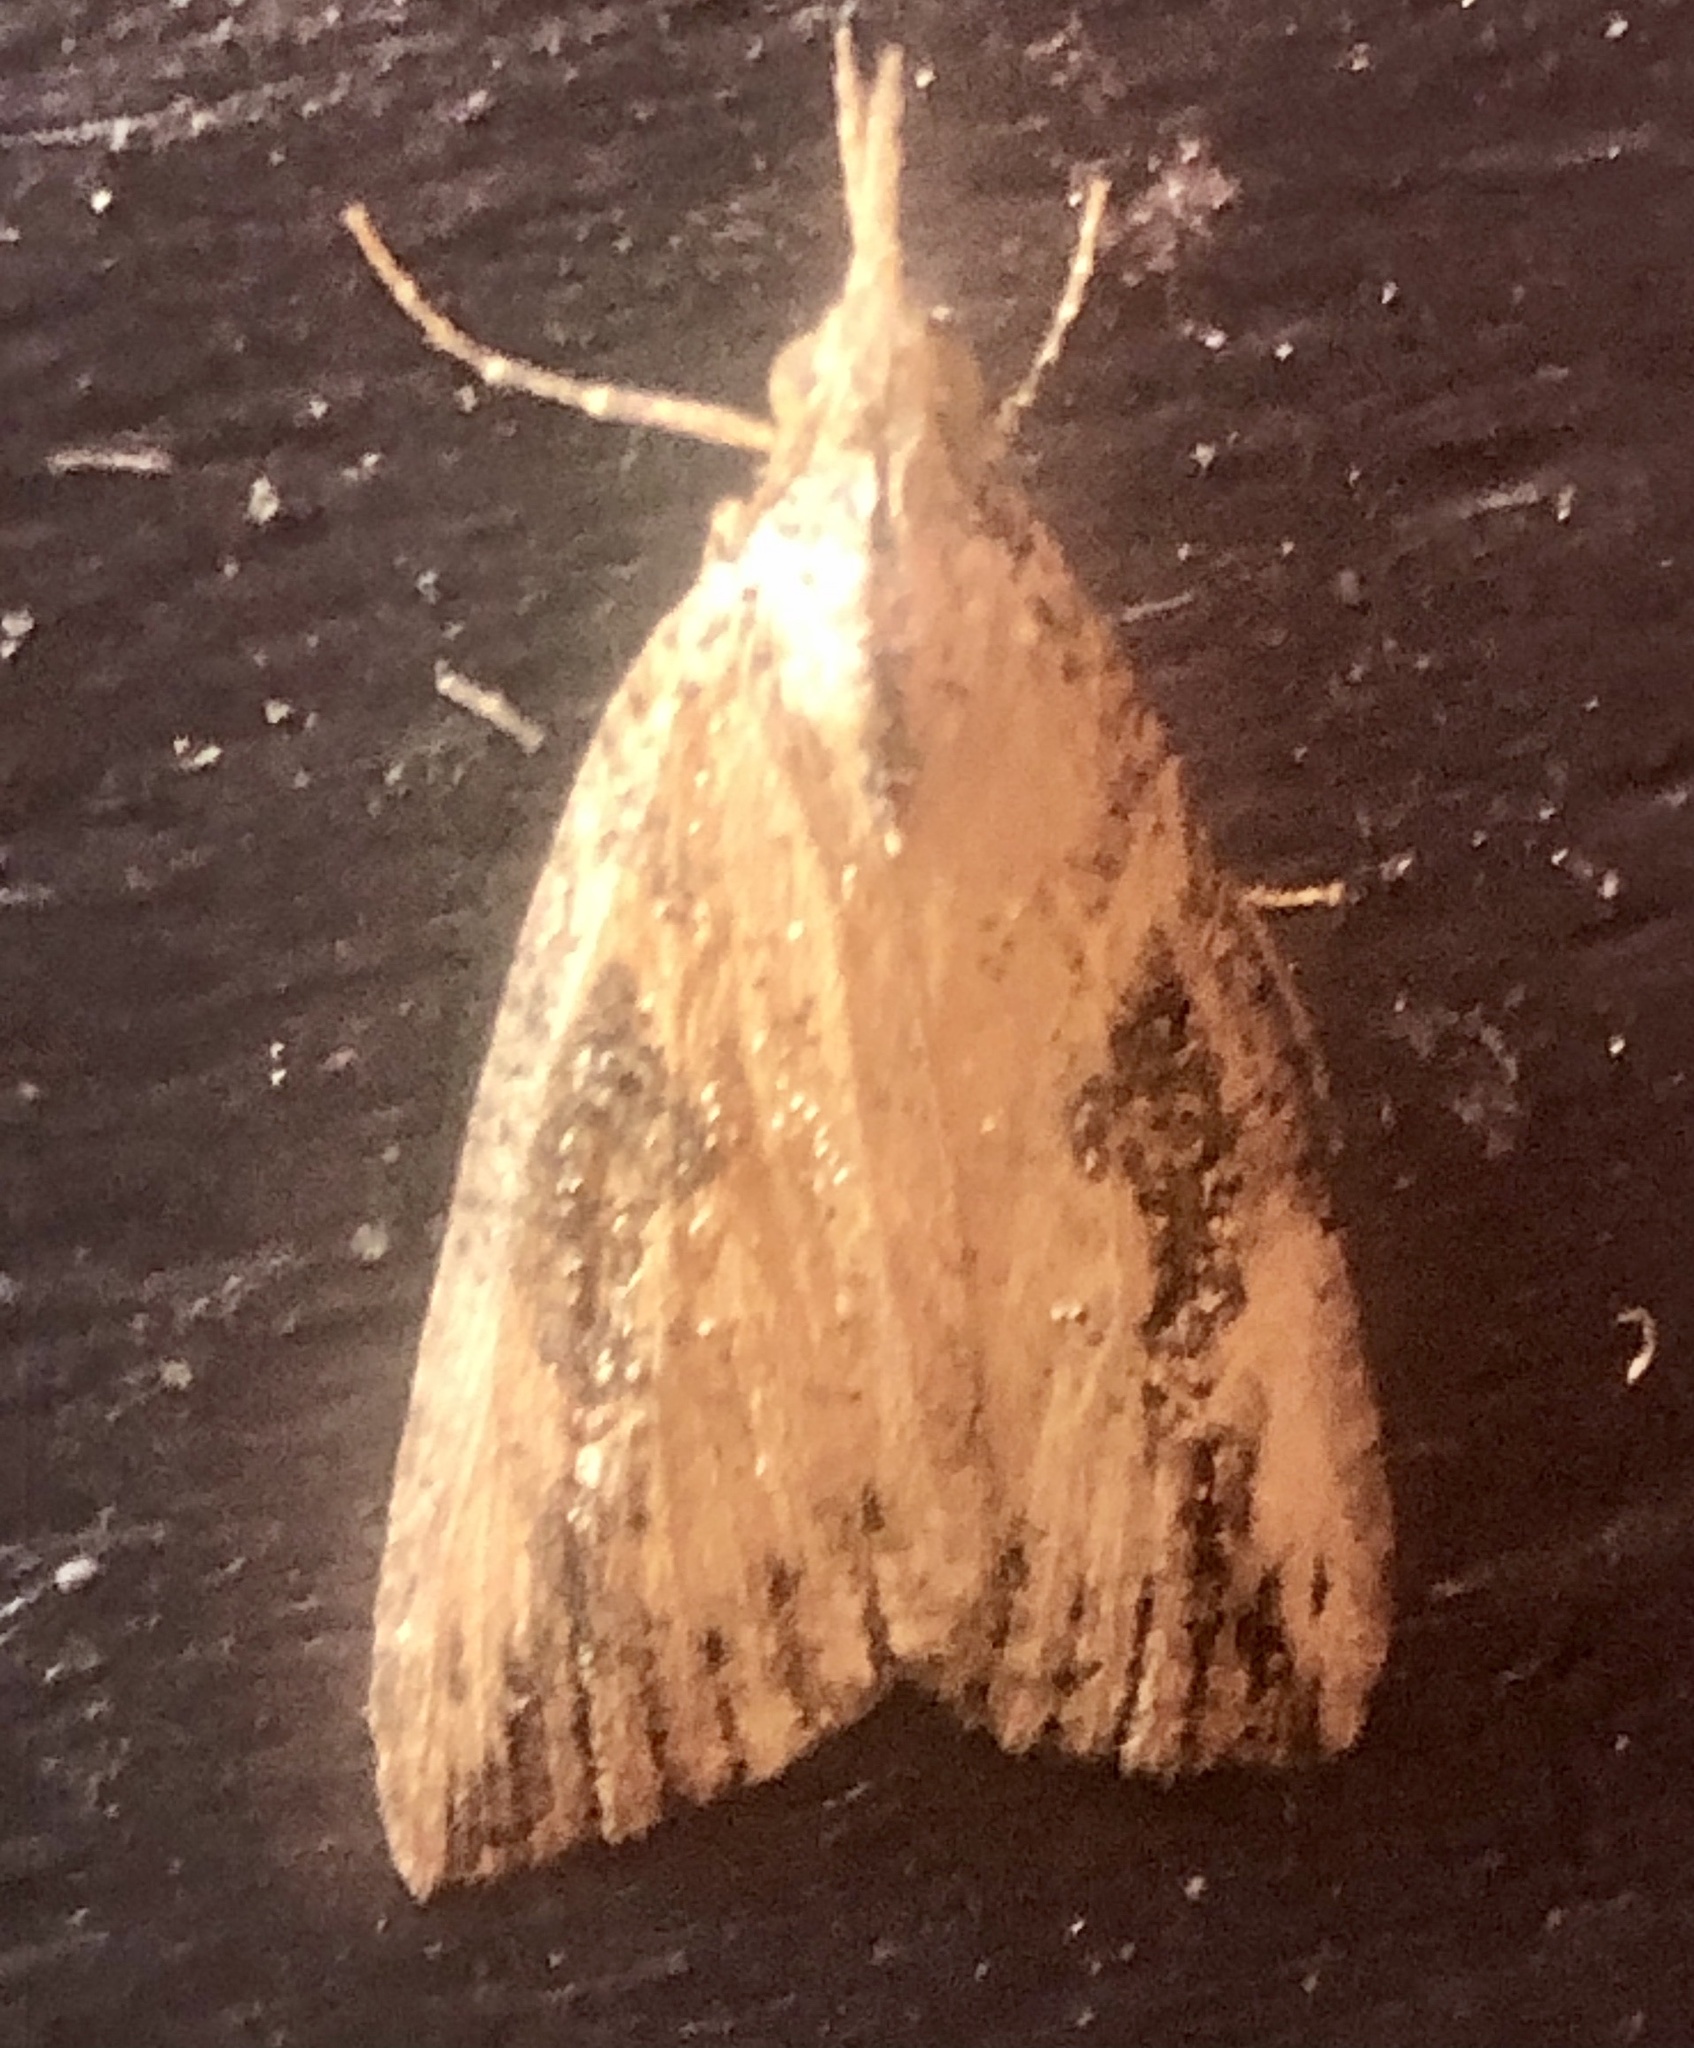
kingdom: Animalia
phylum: Arthropoda
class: Insecta
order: Lepidoptera
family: Erebidae
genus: Hypena
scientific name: Hypena humuli
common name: Hop vine snout
